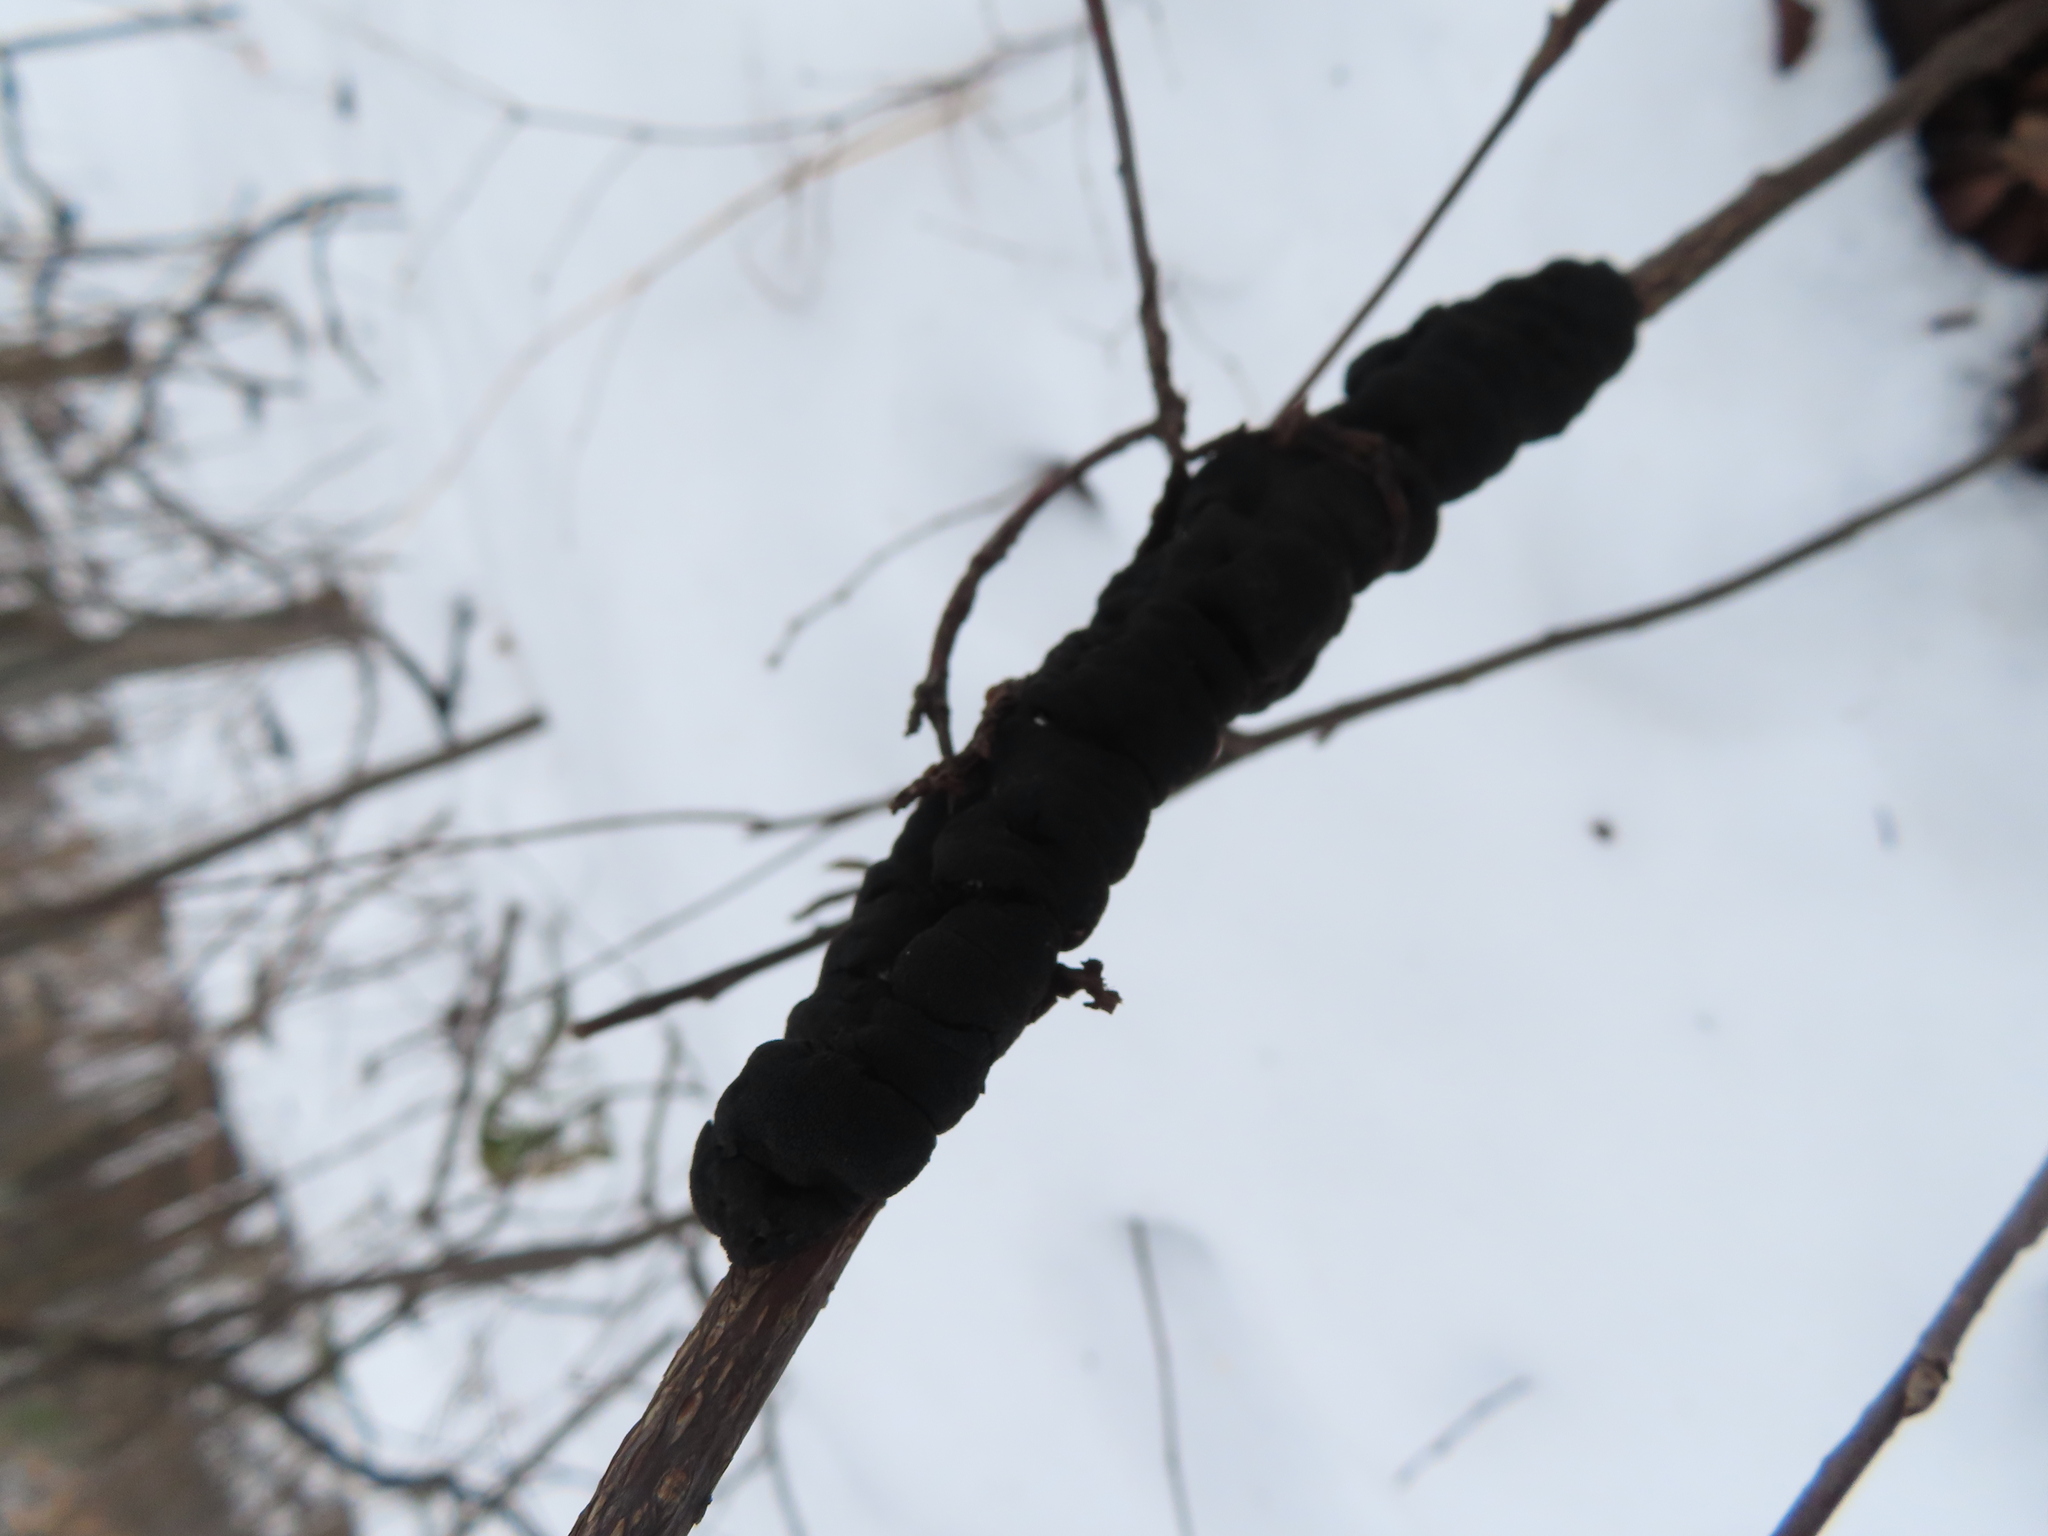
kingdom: Fungi
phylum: Ascomycota
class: Dothideomycetes
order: Venturiales
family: Venturiaceae
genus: Apiosporina
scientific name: Apiosporina morbosa
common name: Black knot
